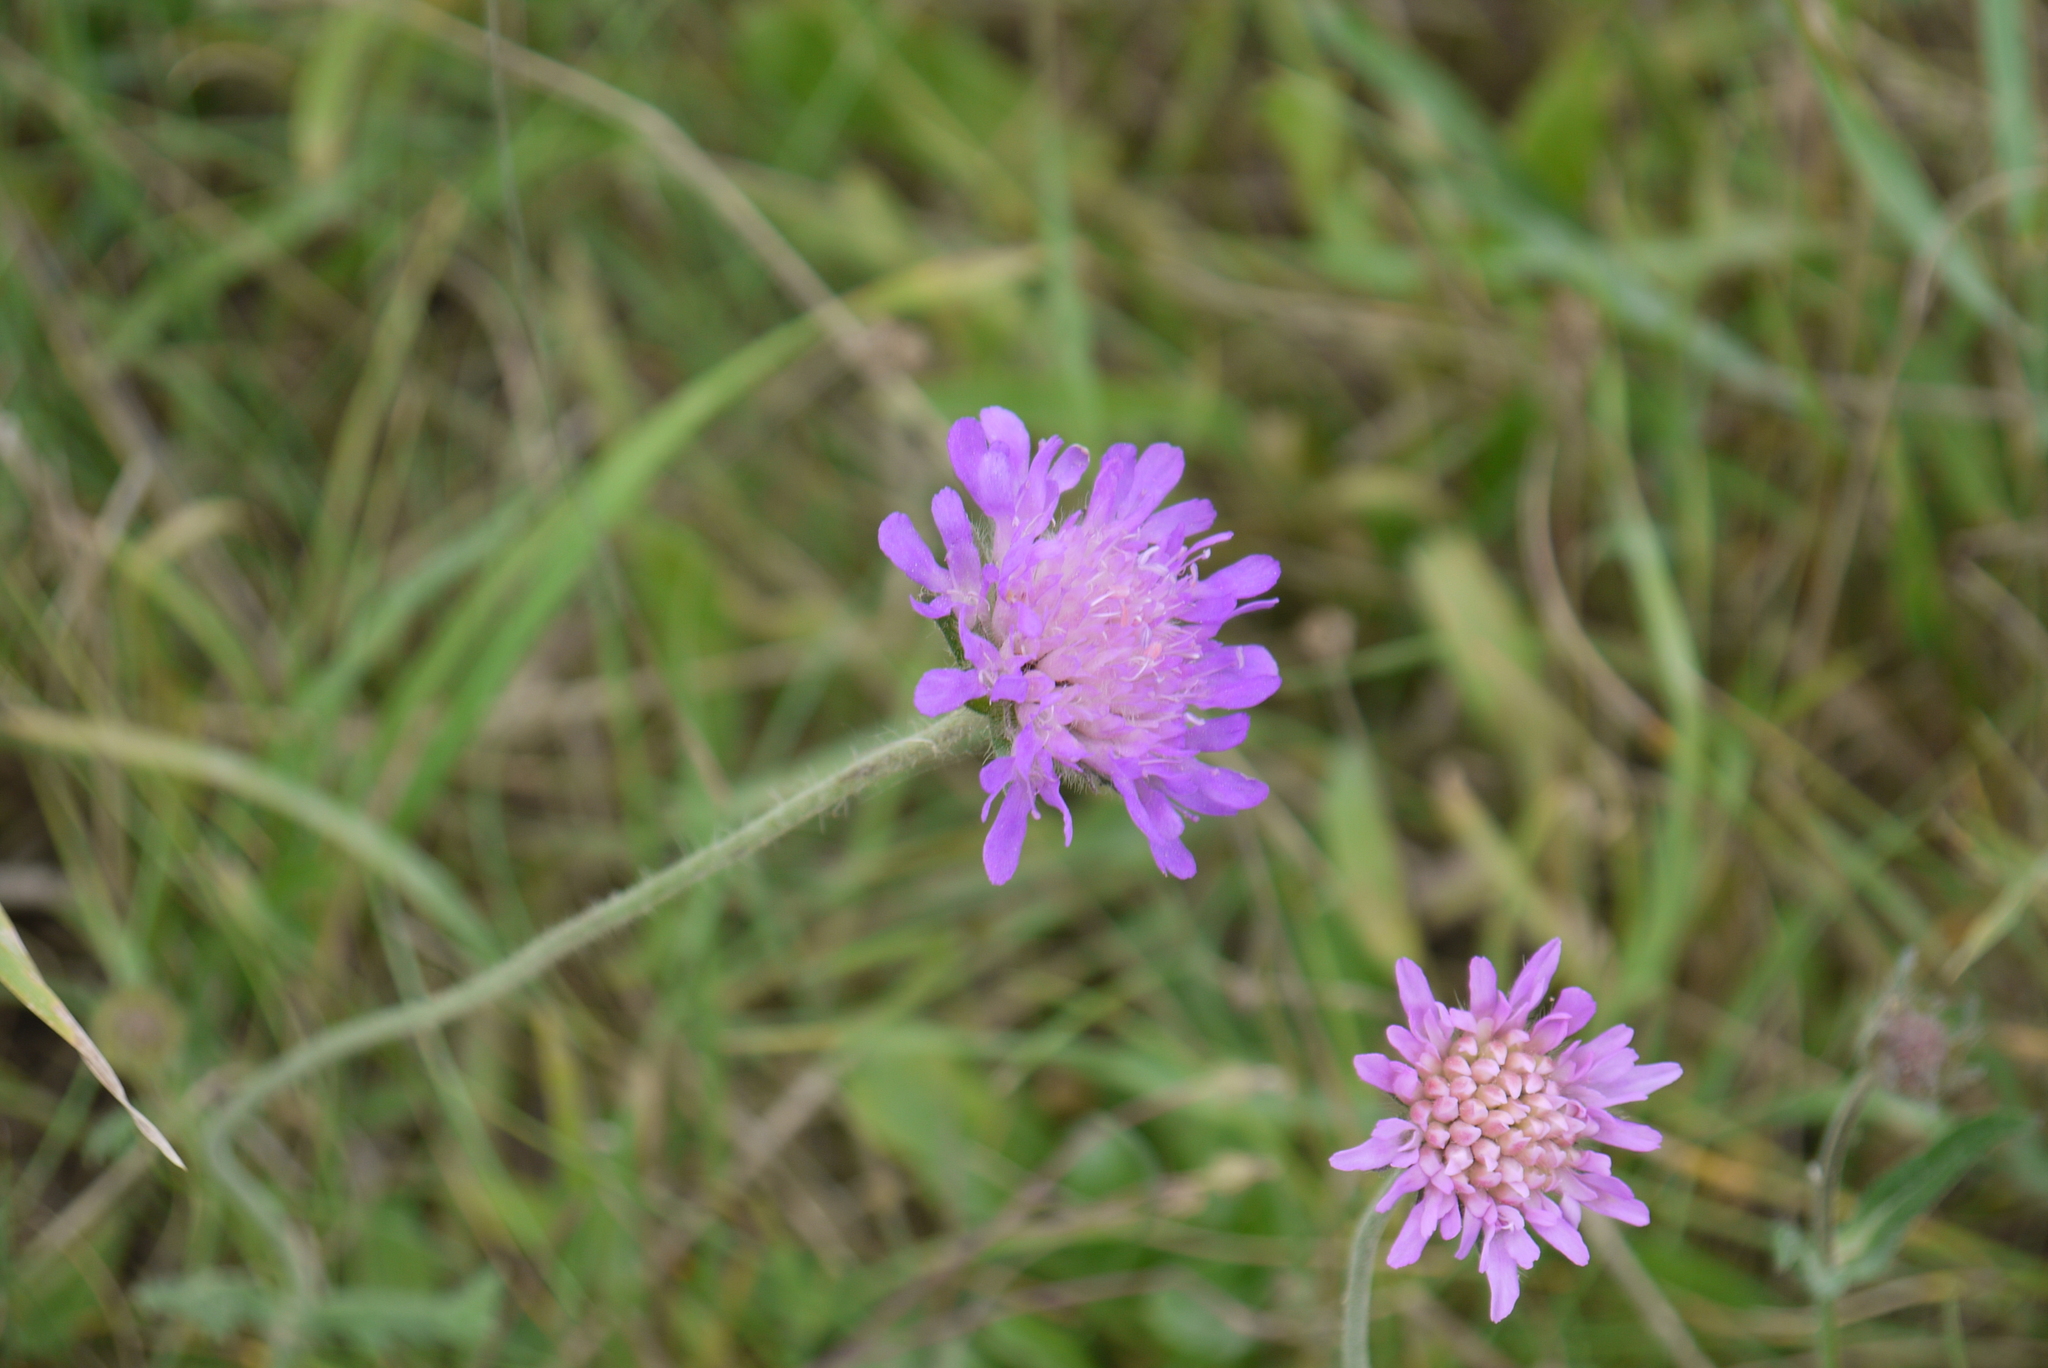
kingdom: Plantae
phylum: Tracheophyta
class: Magnoliopsida
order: Dipsacales
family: Caprifoliaceae
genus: Knautia
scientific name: Knautia arvensis
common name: Field scabiosa
